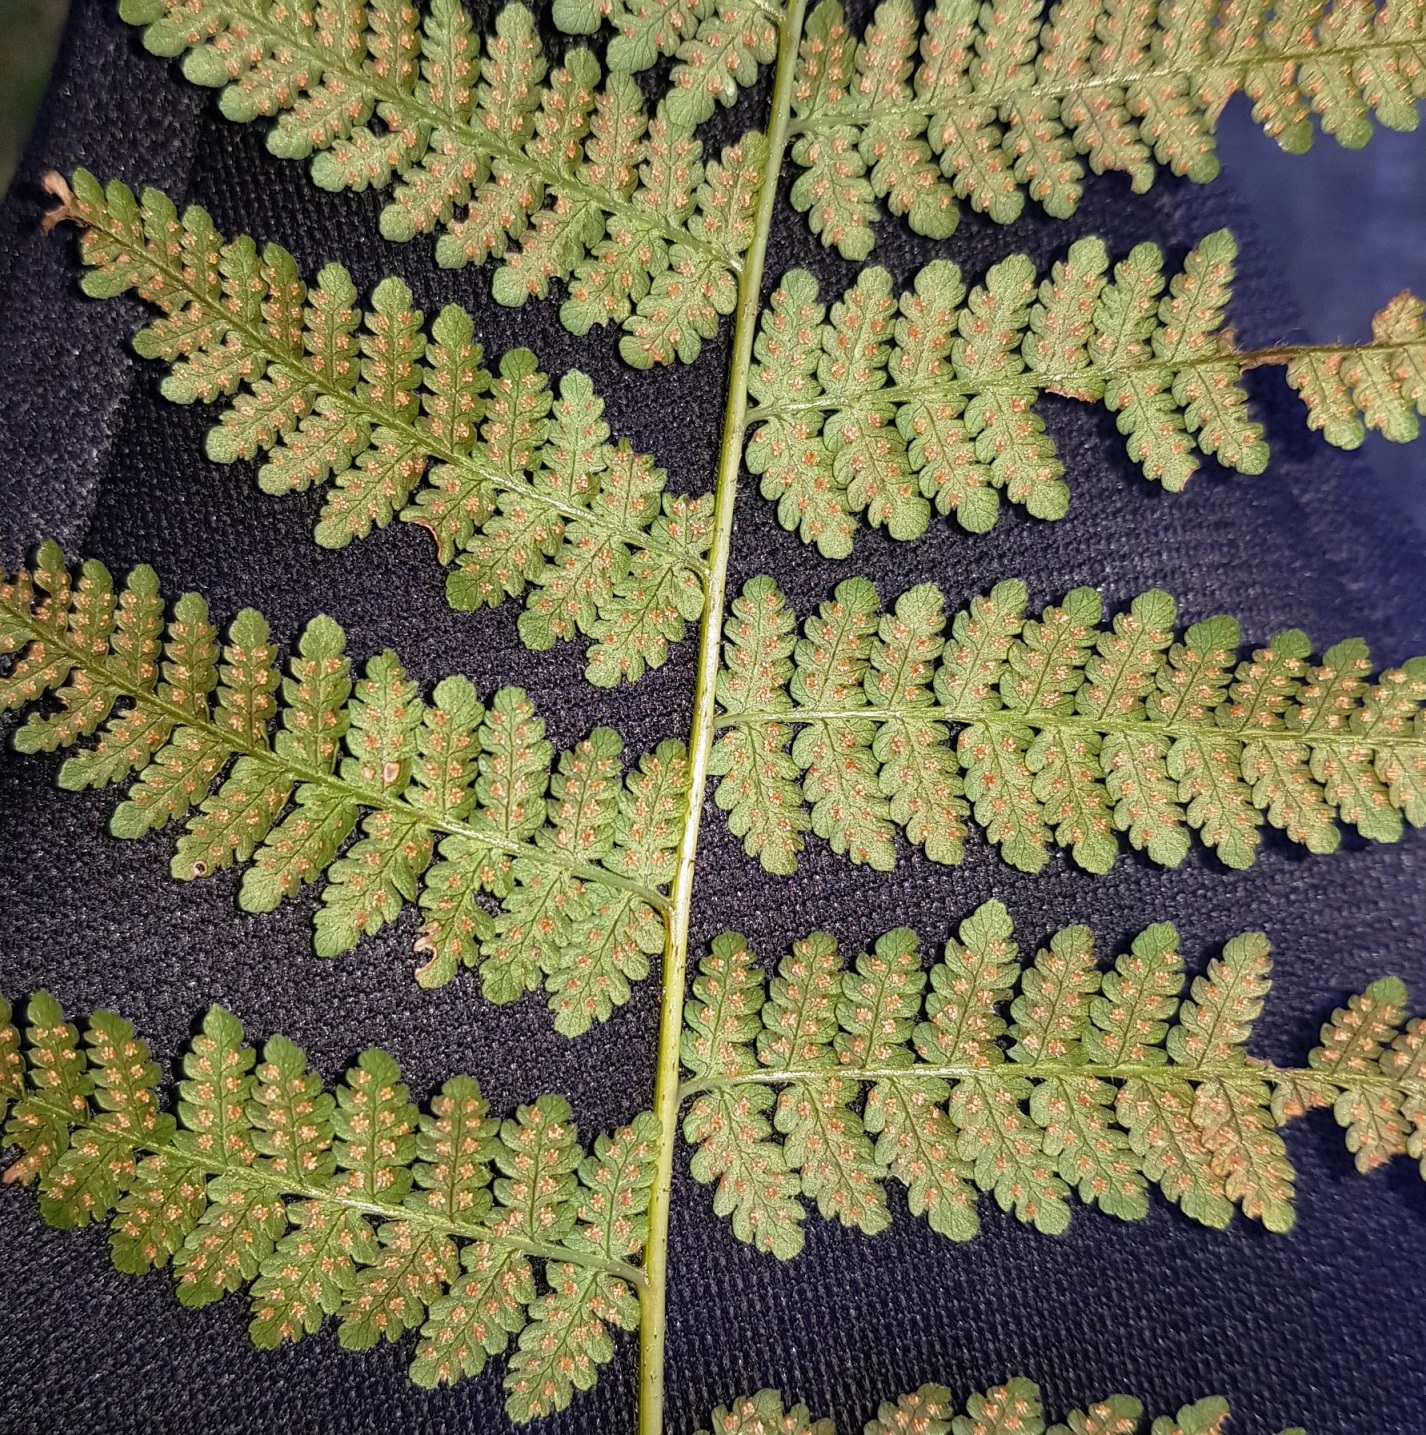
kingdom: Plantae
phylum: Tracheophyta
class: Polypodiopsida
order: Polypodiales
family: Dennstaedtiaceae
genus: Hypolepis
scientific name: Hypolepis ambigua
